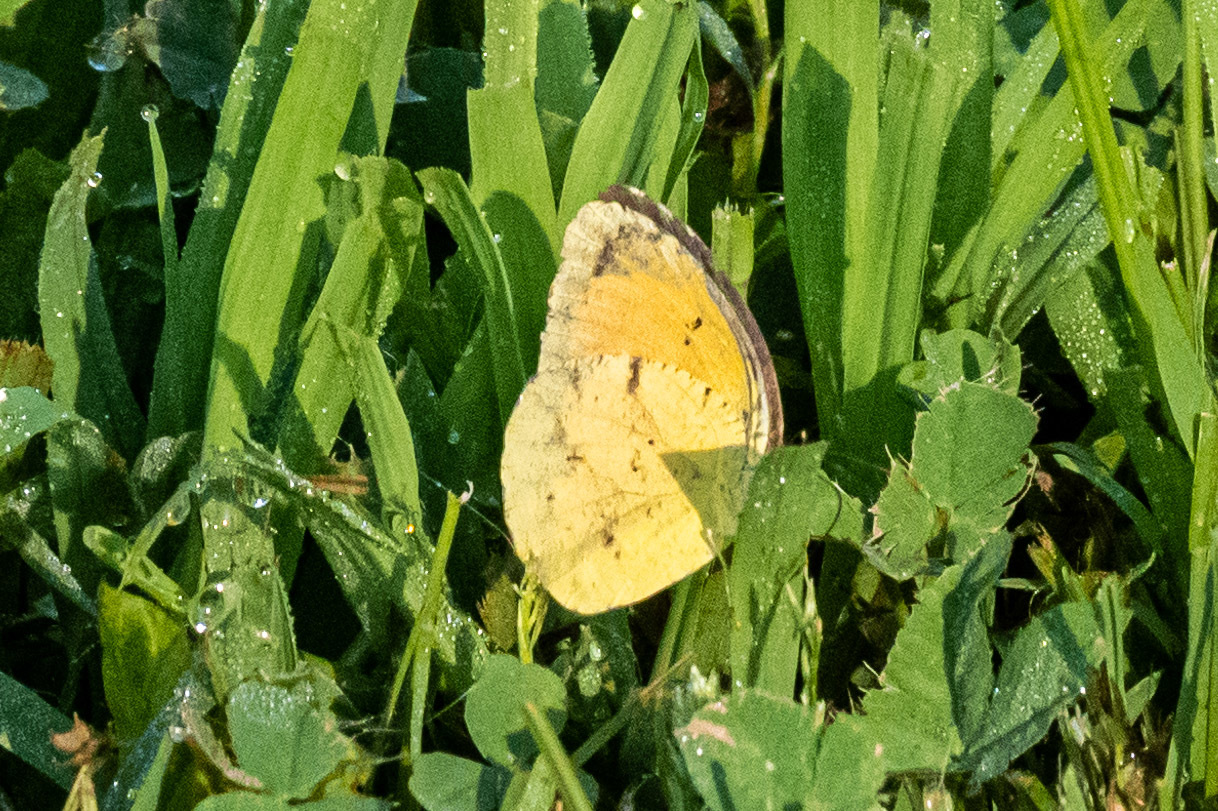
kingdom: Animalia
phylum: Arthropoda
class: Insecta
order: Lepidoptera
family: Pieridae
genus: Abaeis
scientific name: Abaeis nicippe
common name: Sleepy orange
